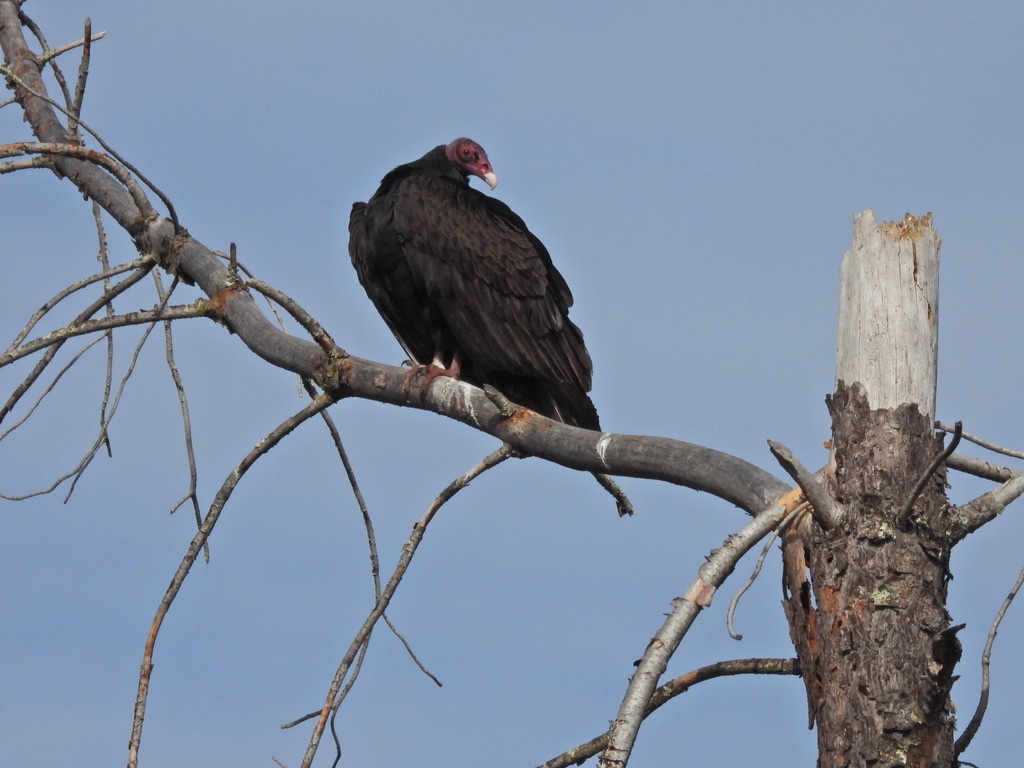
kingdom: Animalia
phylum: Chordata
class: Aves
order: Accipitriformes
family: Cathartidae
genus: Cathartes
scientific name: Cathartes aura
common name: Turkey vulture
